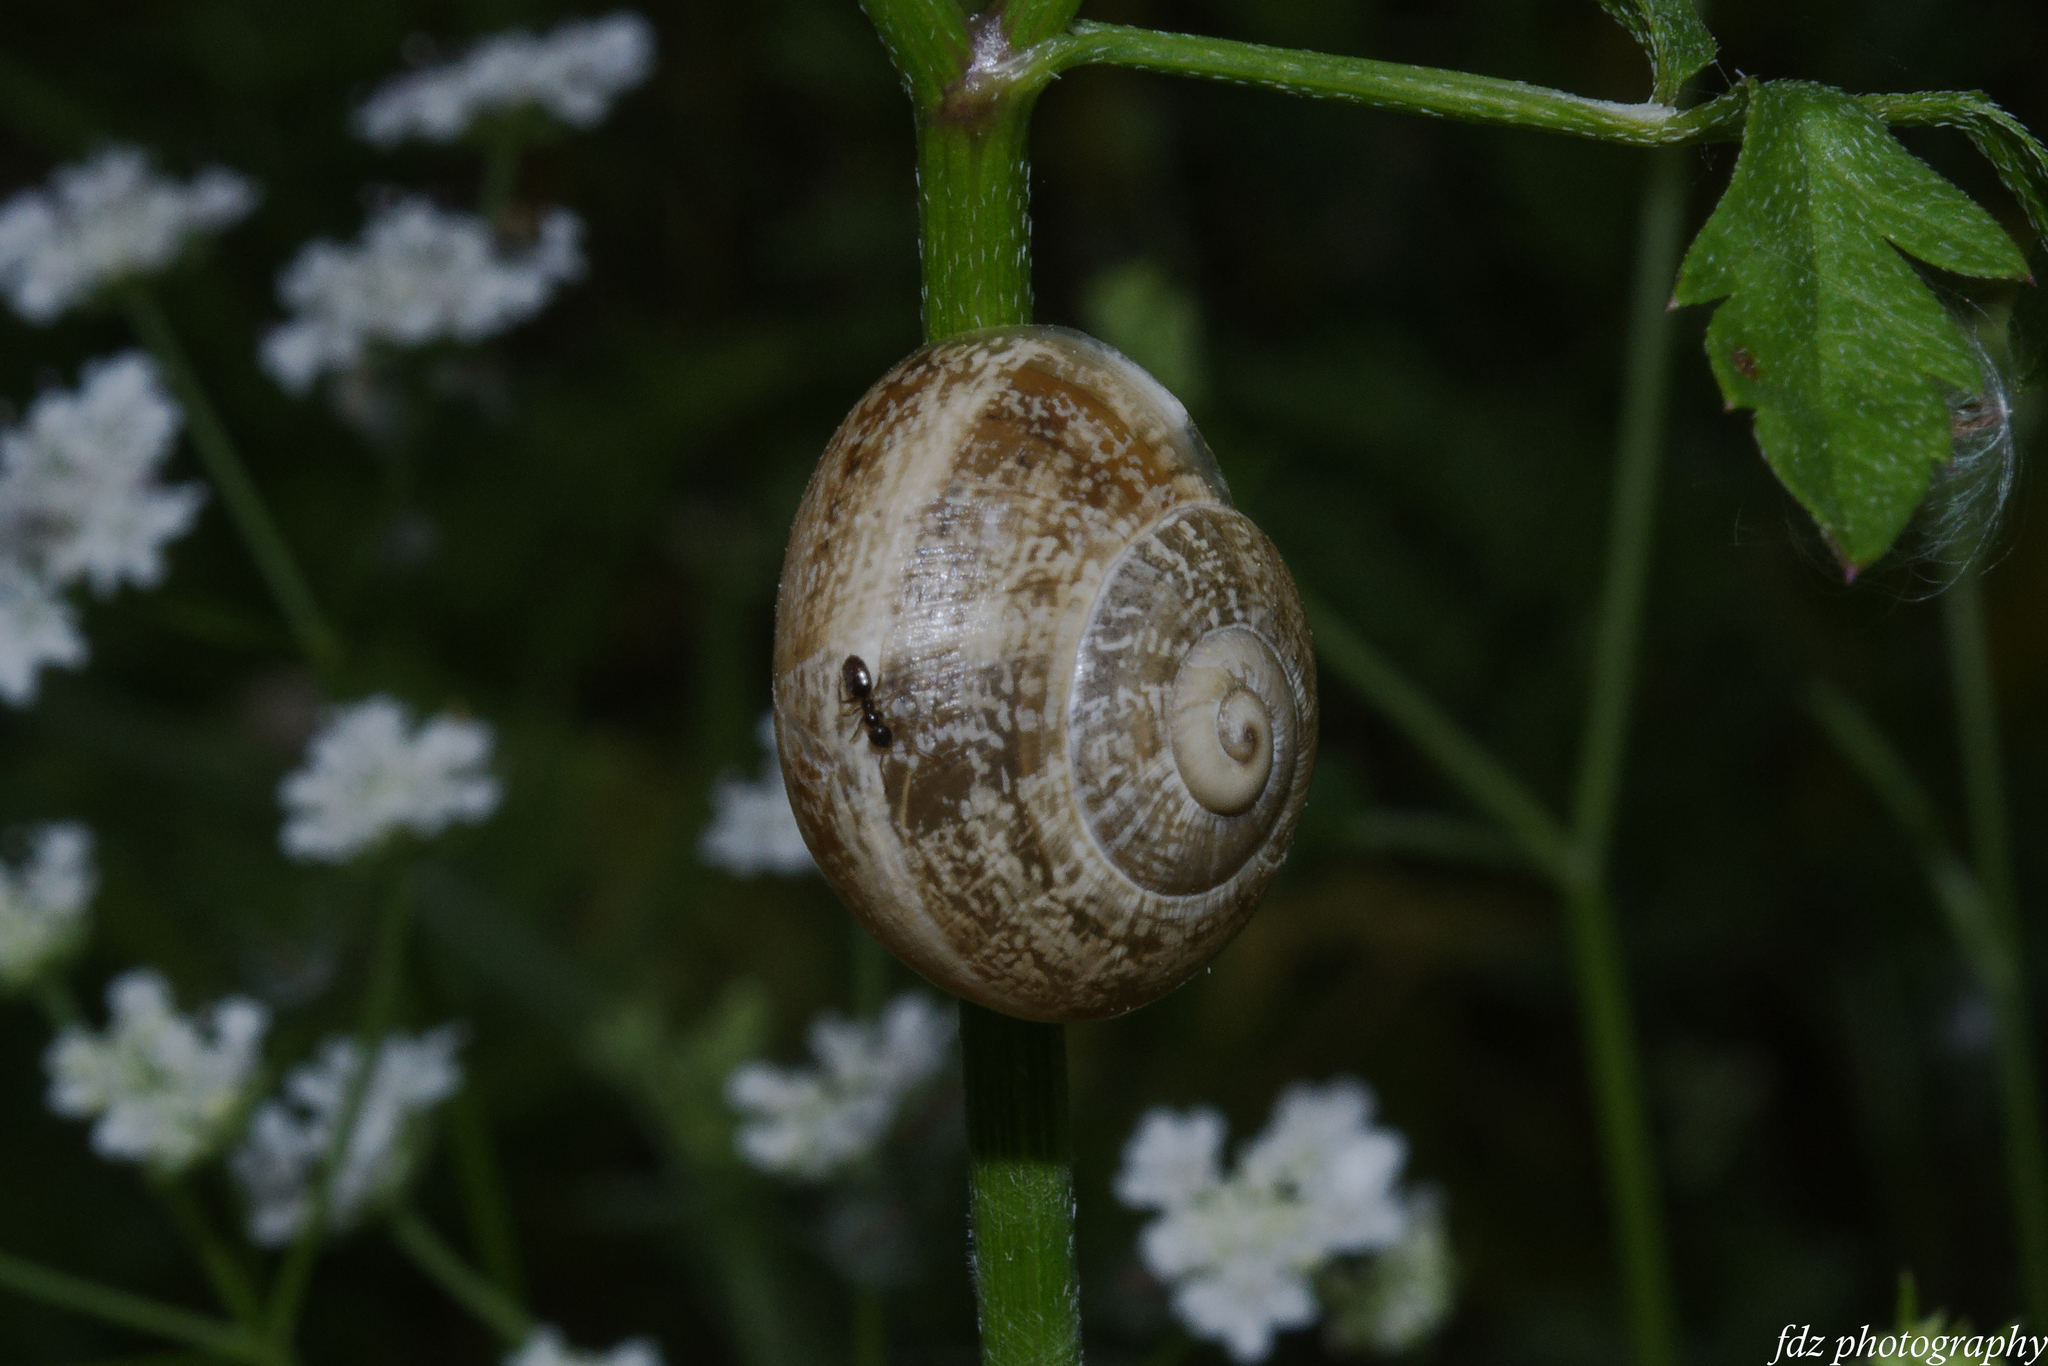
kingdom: Animalia
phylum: Mollusca
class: Gastropoda
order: Stylommatophora
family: Helicidae
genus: Otala
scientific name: Otala lactea
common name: Milk snail
